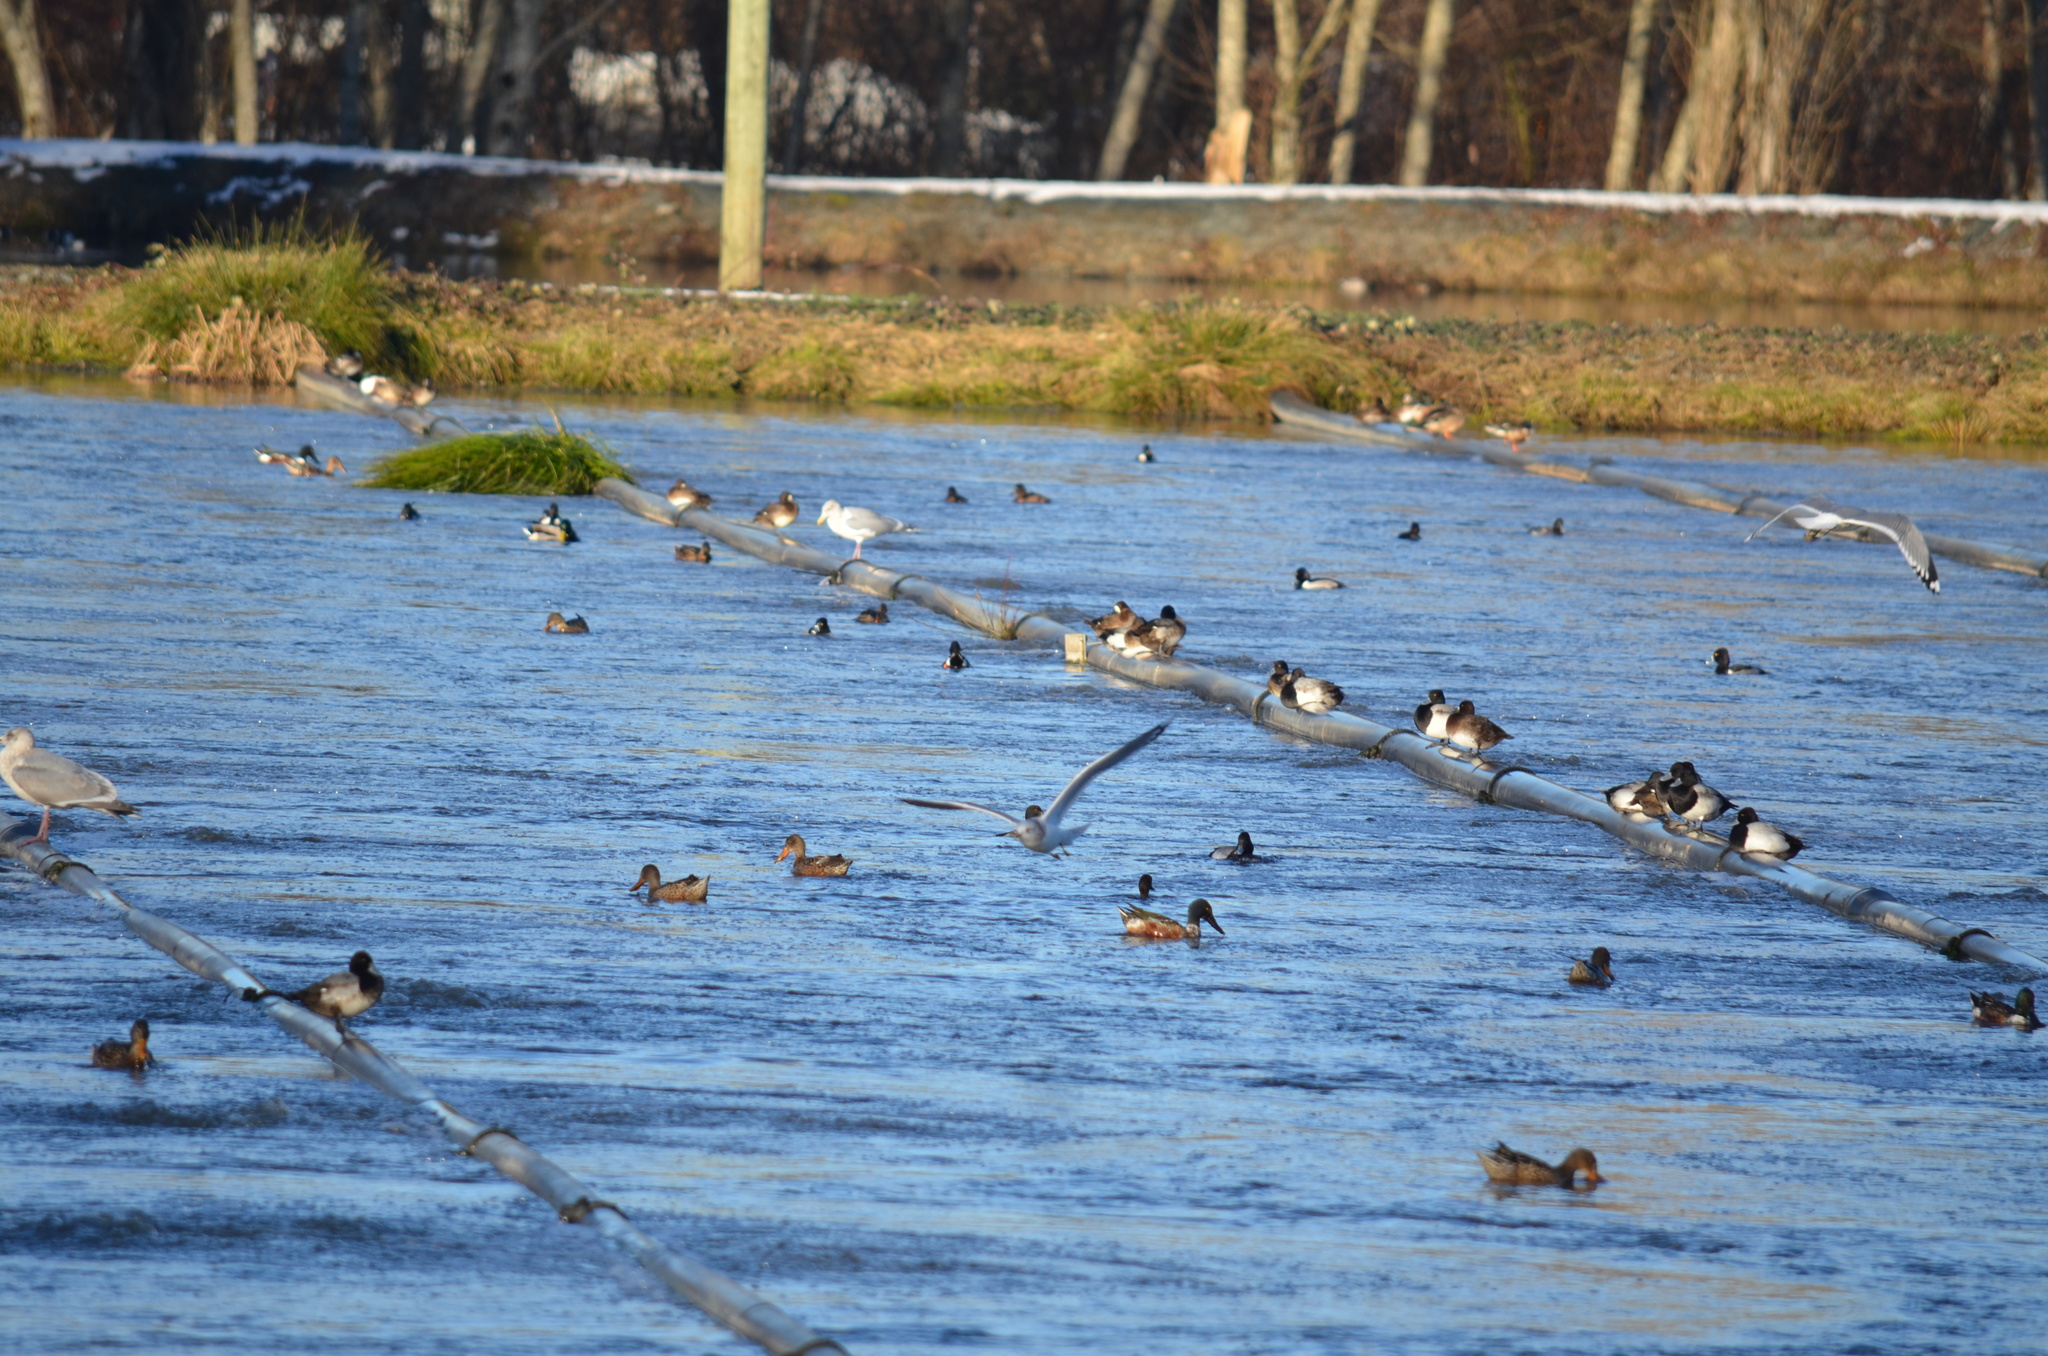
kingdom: Animalia
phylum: Chordata
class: Aves
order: Anseriformes
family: Anatidae
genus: Spatula
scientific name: Spatula clypeata
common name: Northern shoveler
